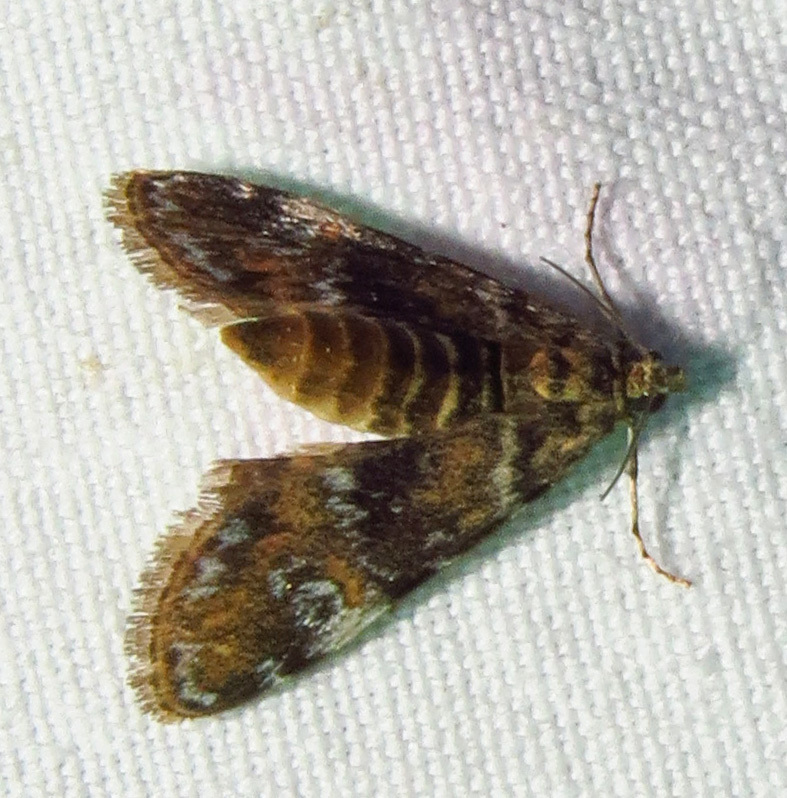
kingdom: Animalia
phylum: Arthropoda
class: Insecta
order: Lepidoptera
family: Crambidae
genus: Elophila
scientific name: Elophila obliteralis
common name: Waterlily leafcutter moth
